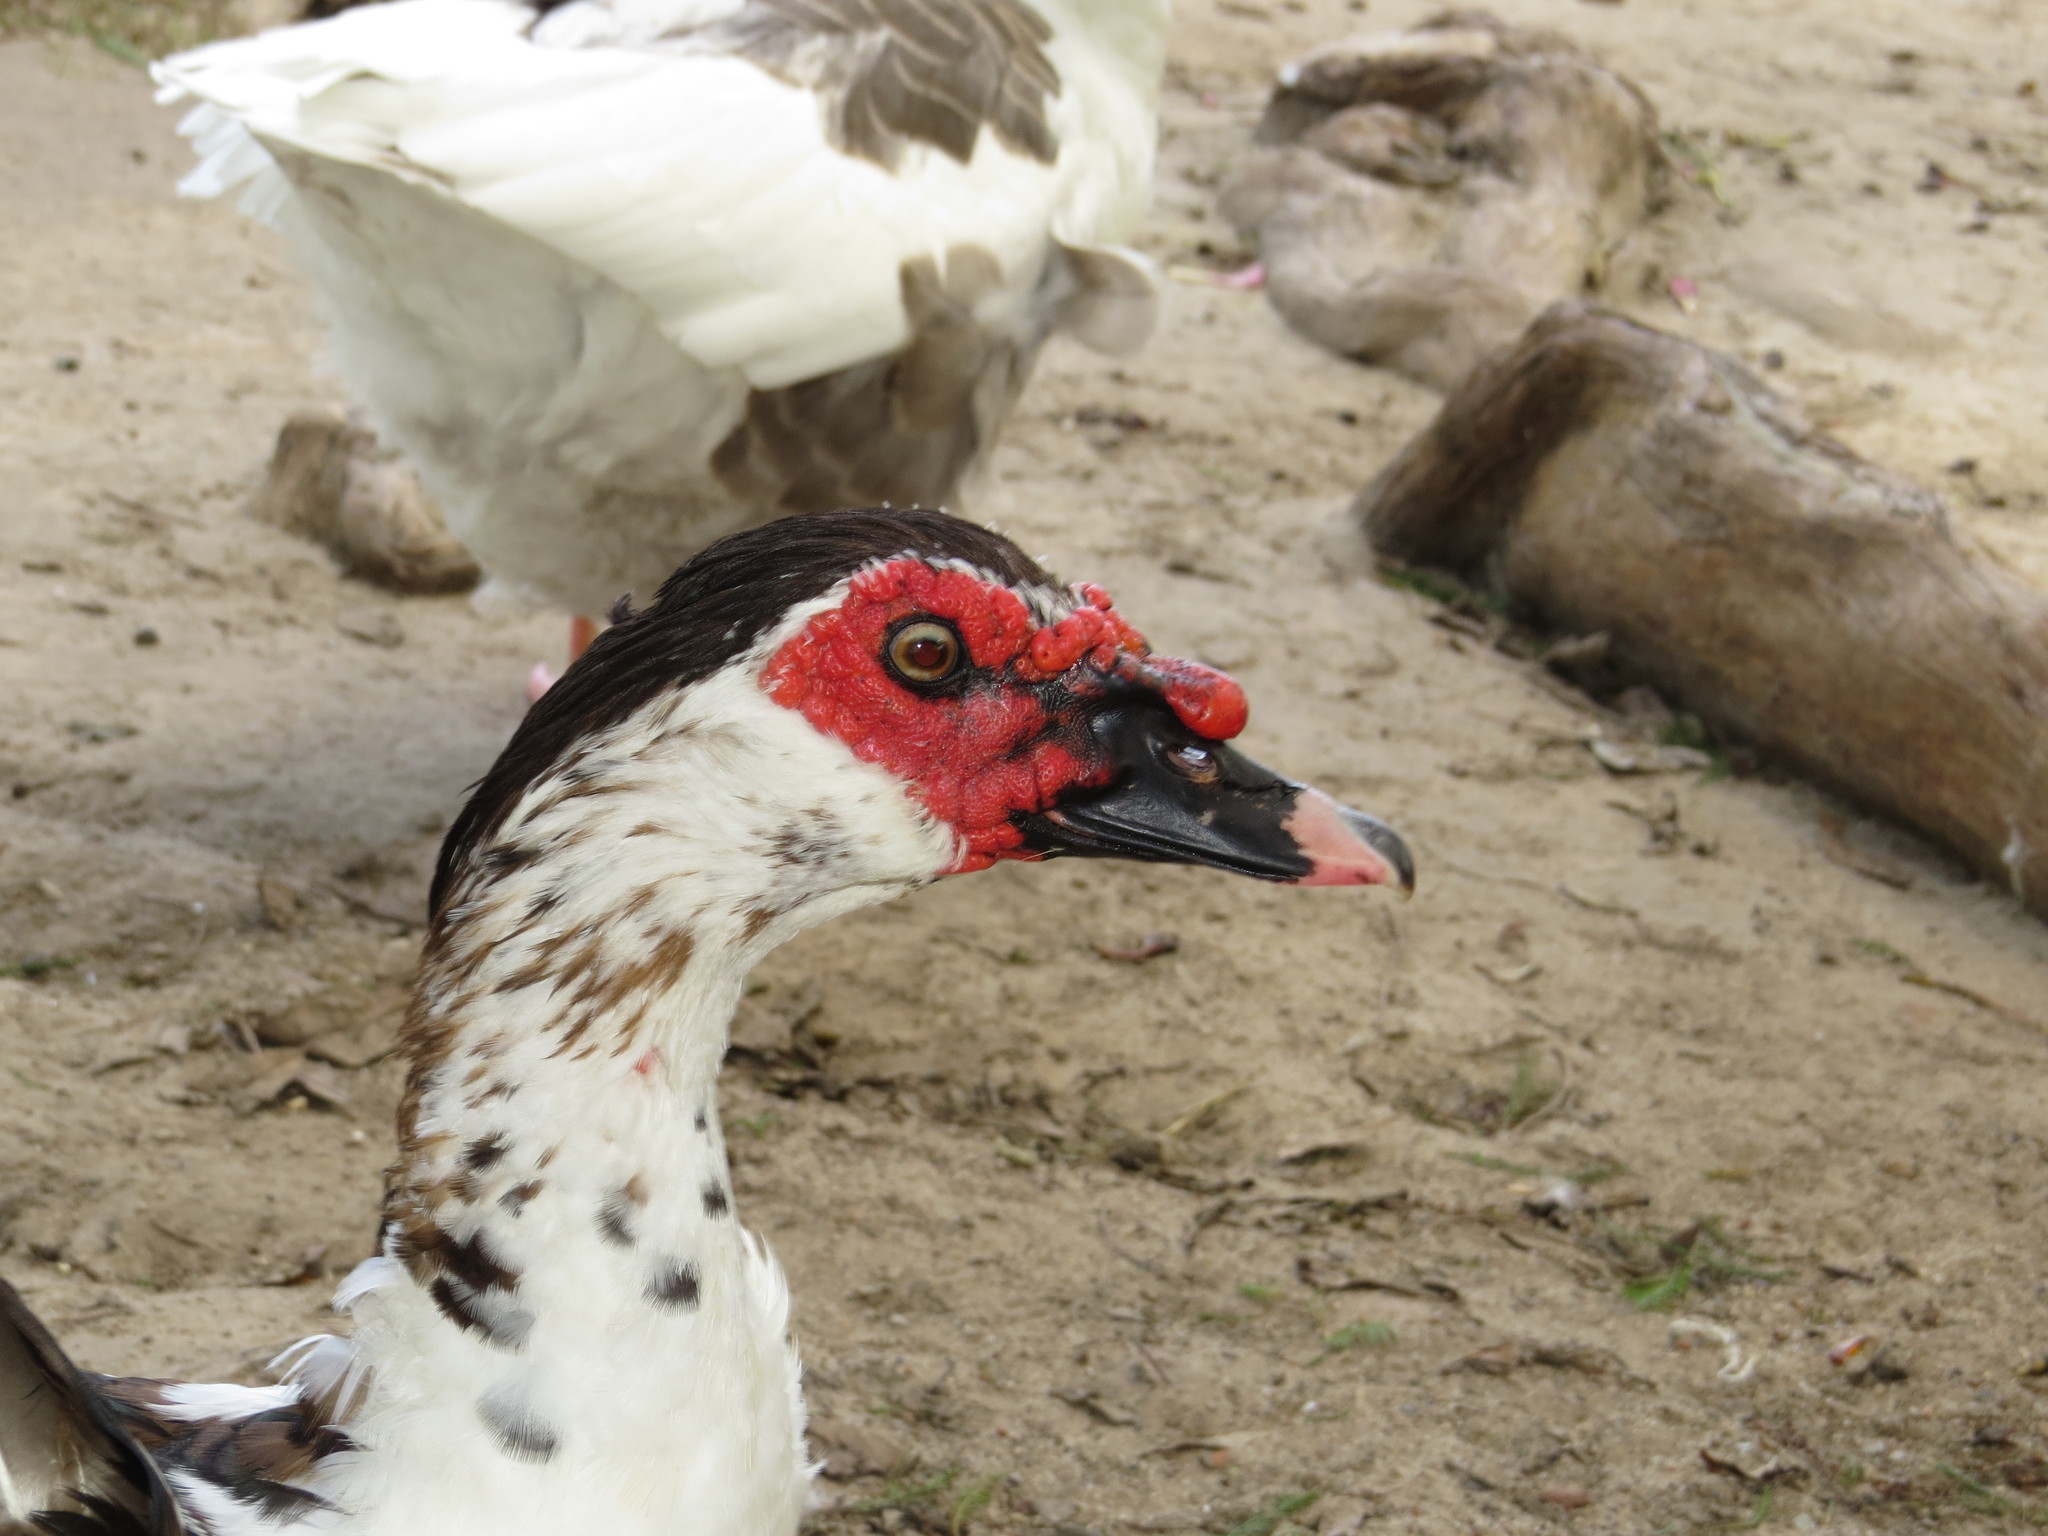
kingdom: Animalia
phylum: Chordata
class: Aves
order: Anseriformes
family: Anatidae
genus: Cairina
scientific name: Cairina moschata
